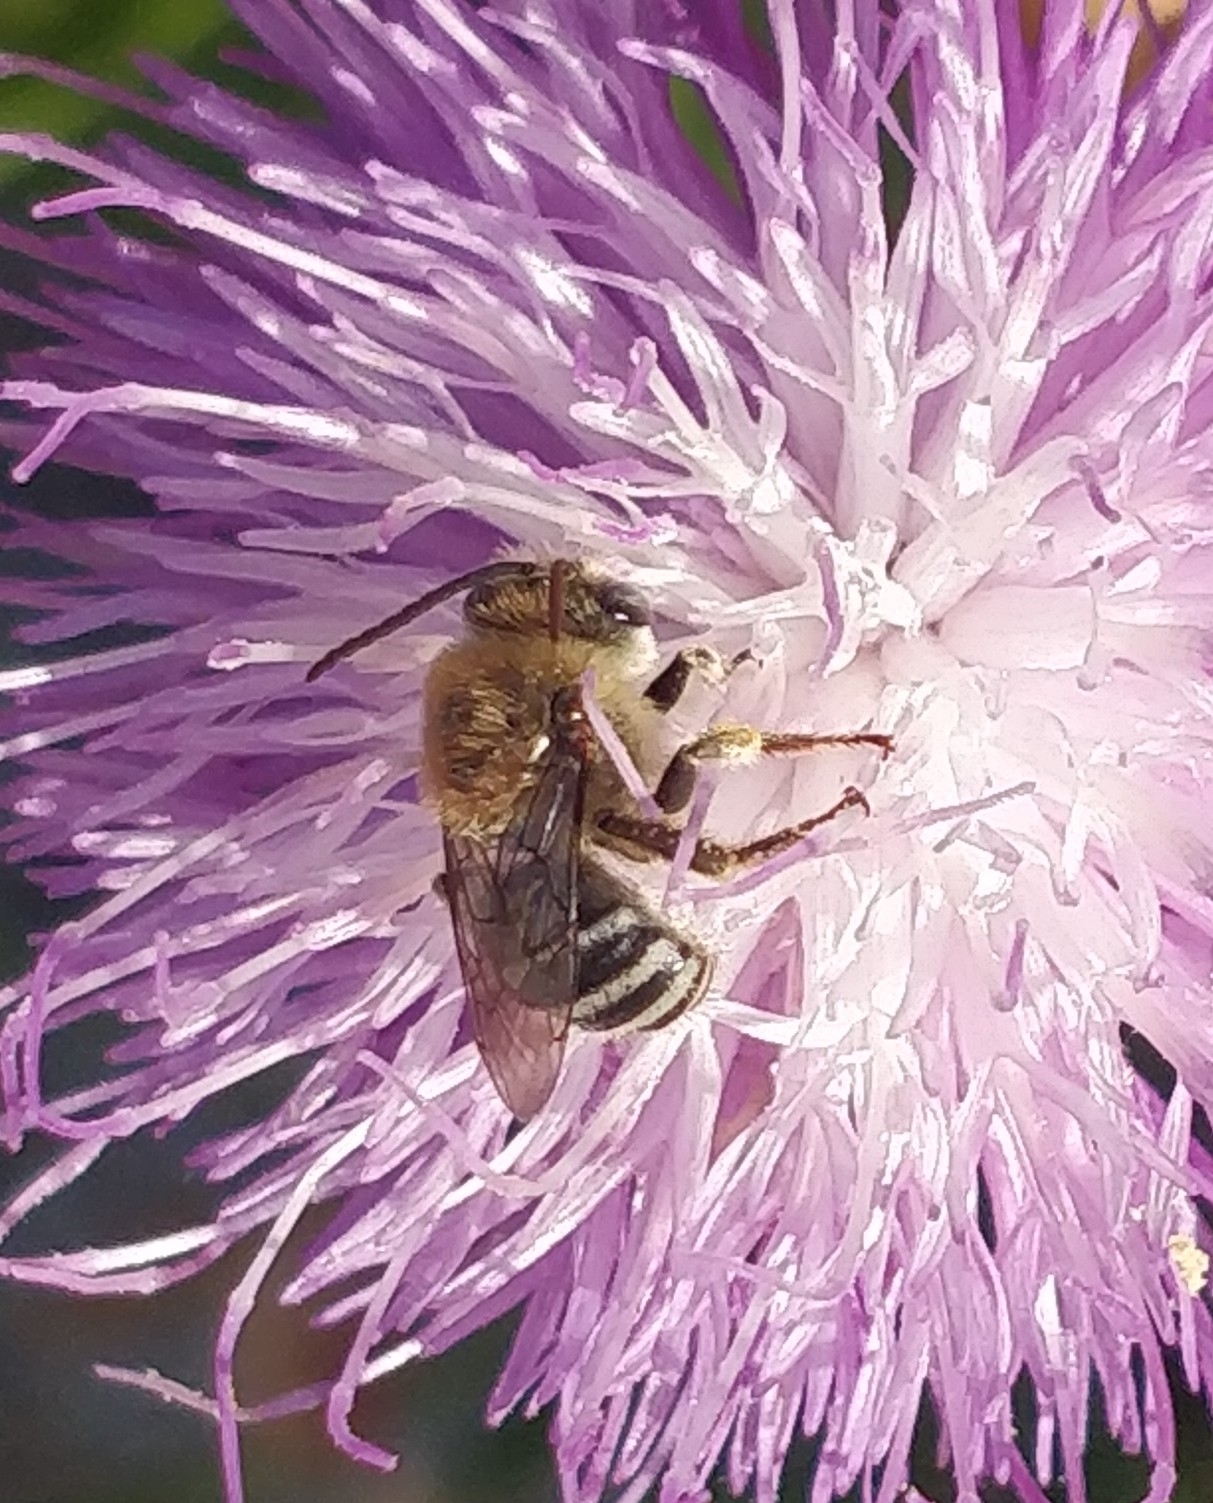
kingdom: Animalia
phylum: Arthropoda
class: Insecta
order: Hymenoptera
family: Apidae
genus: Tetraloniella
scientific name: Tetraloniella hohmanni
